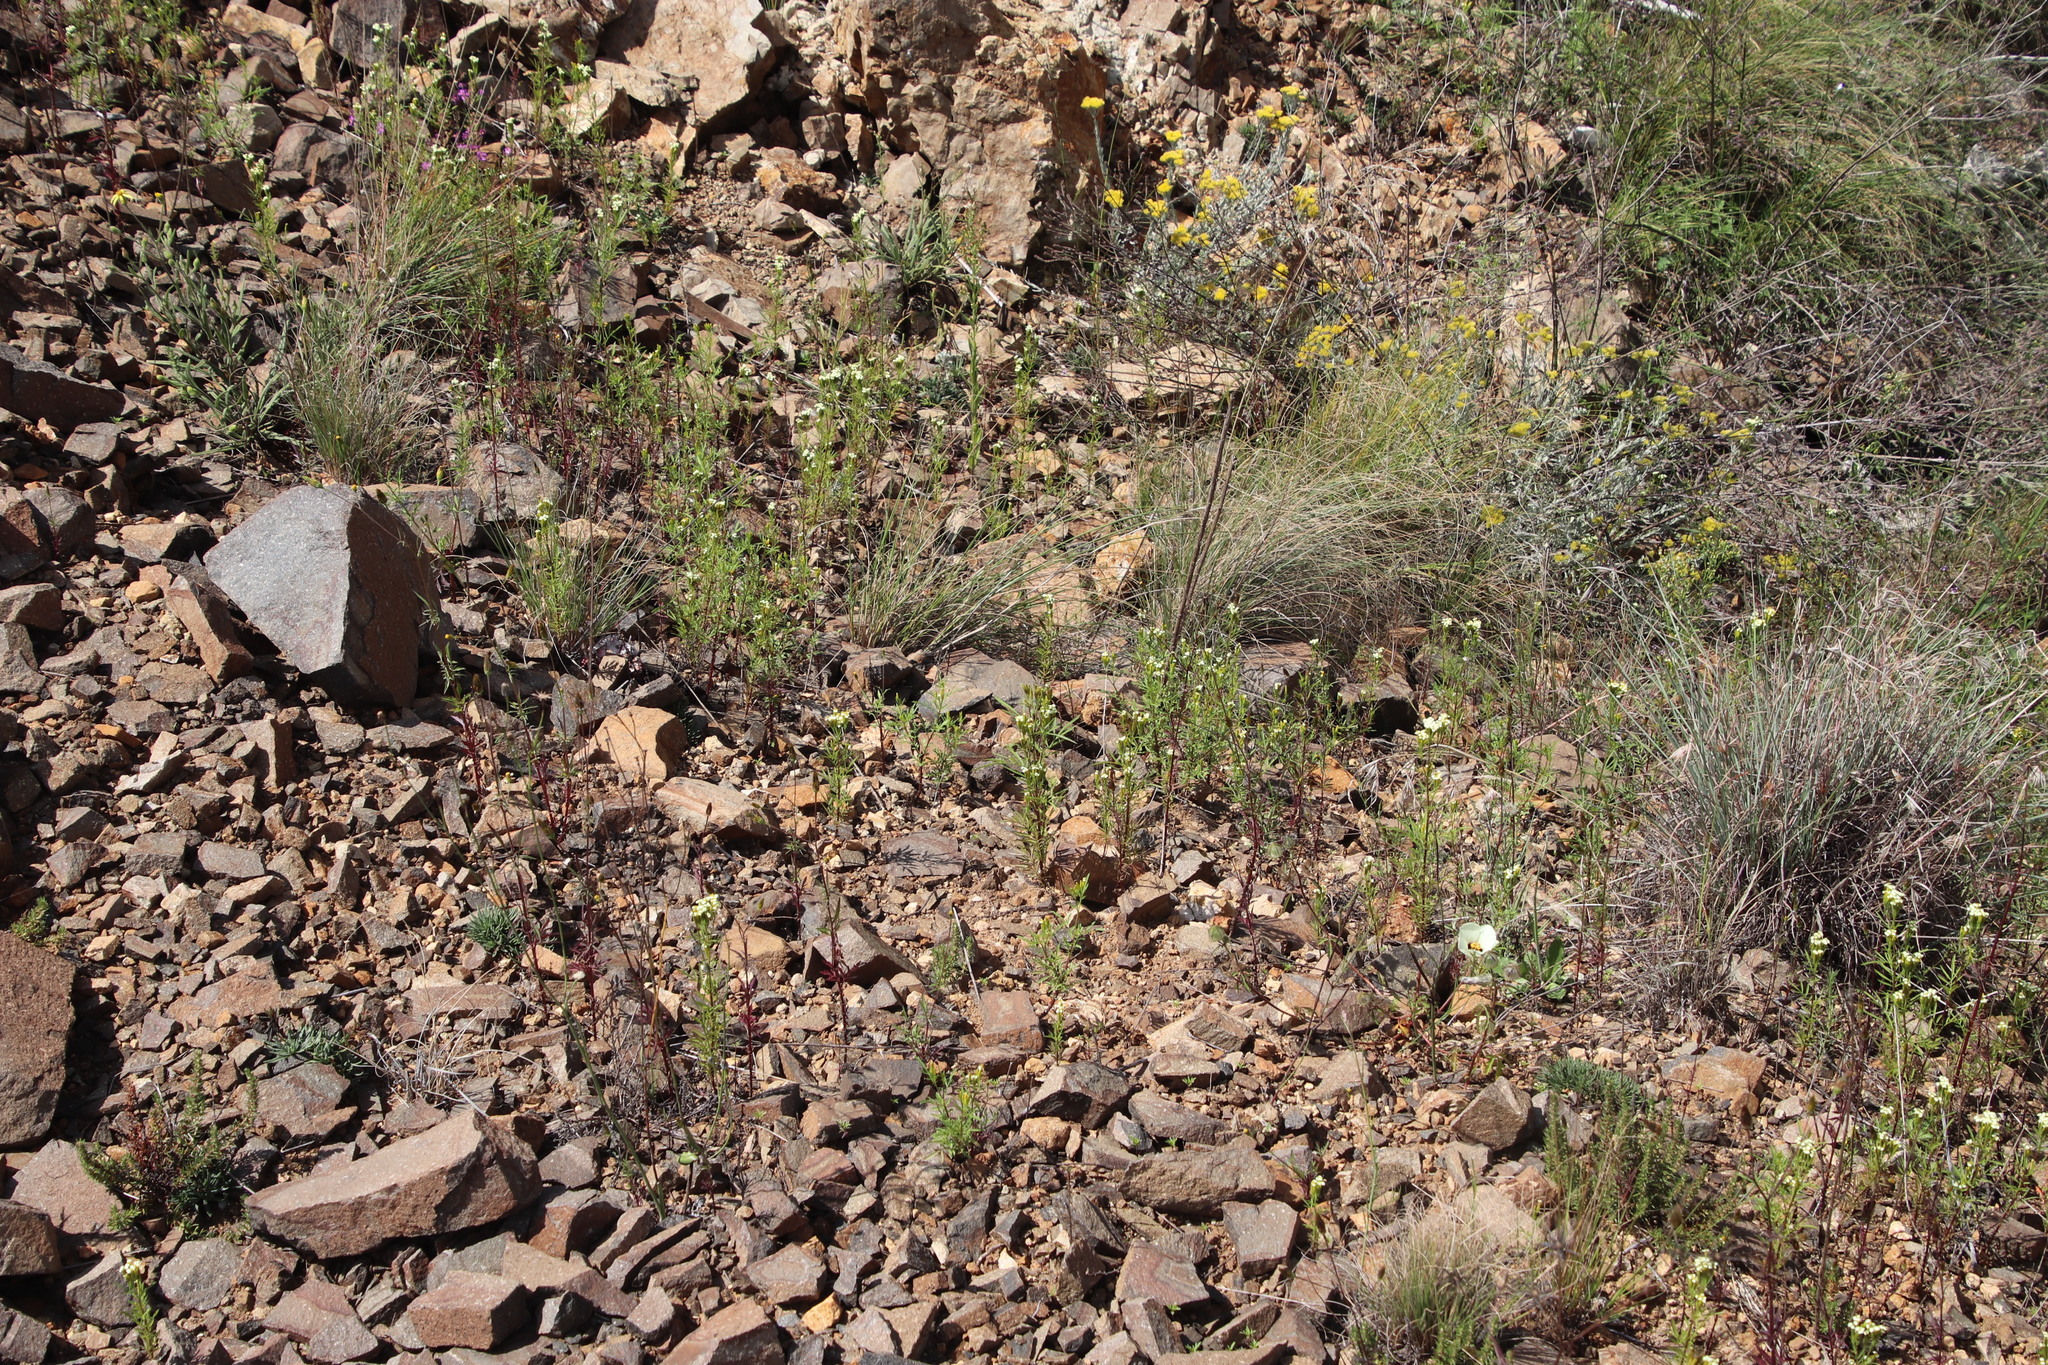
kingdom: Plantae
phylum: Tracheophyta
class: Magnoliopsida
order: Asterales
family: Asteraceae
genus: Tagetes
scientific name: Tagetes minuta
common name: Muster john henry
